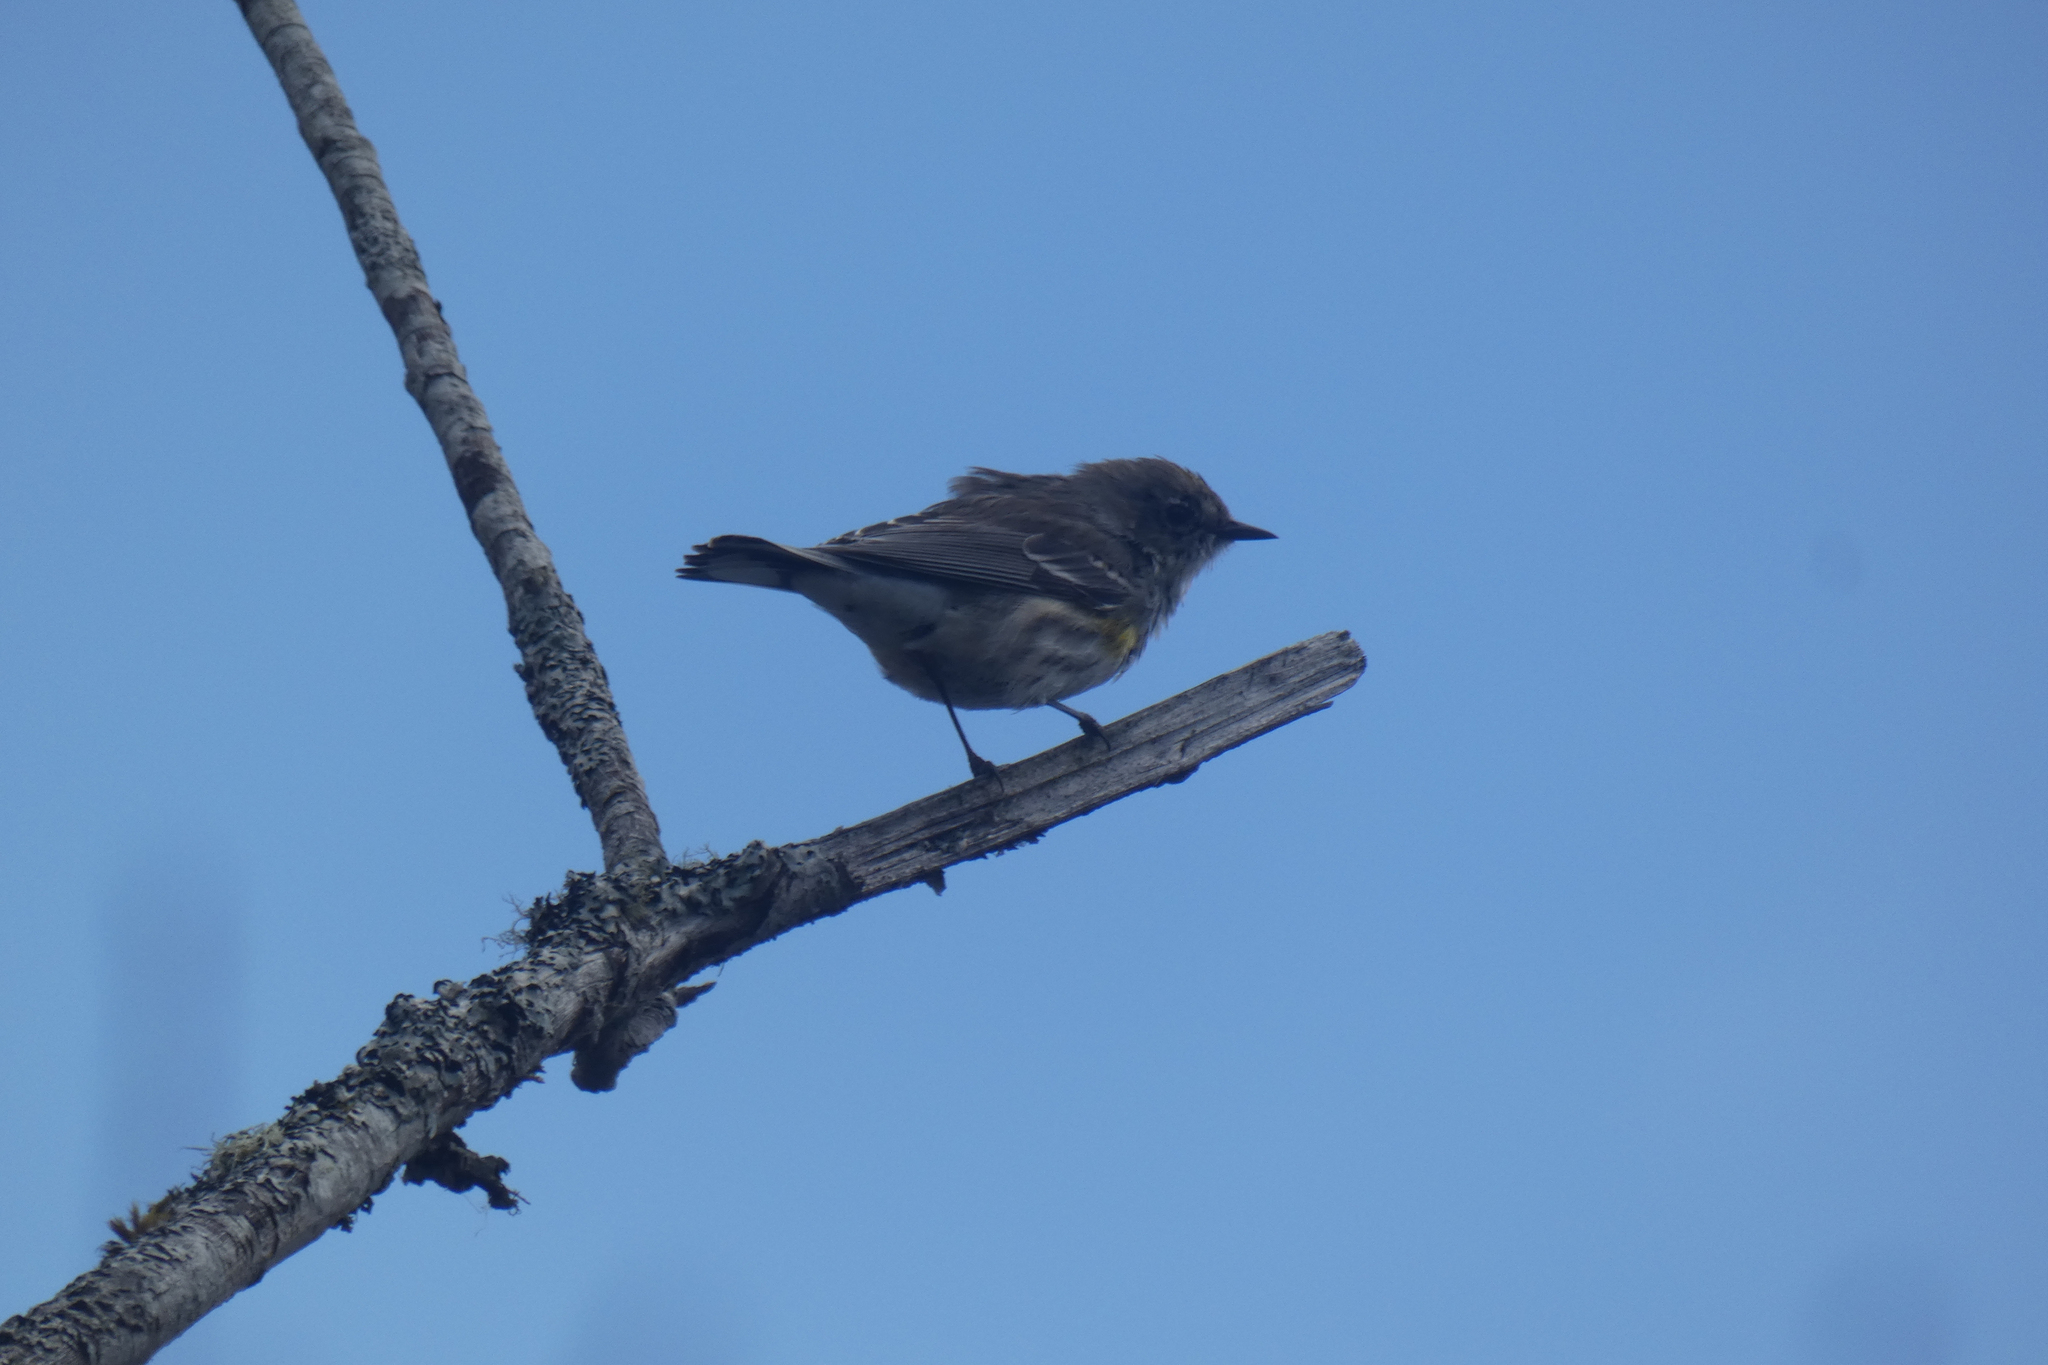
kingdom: Animalia
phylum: Chordata
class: Aves
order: Passeriformes
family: Parulidae
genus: Setophaga
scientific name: Setophaga coronata
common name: Myrtle warbler
